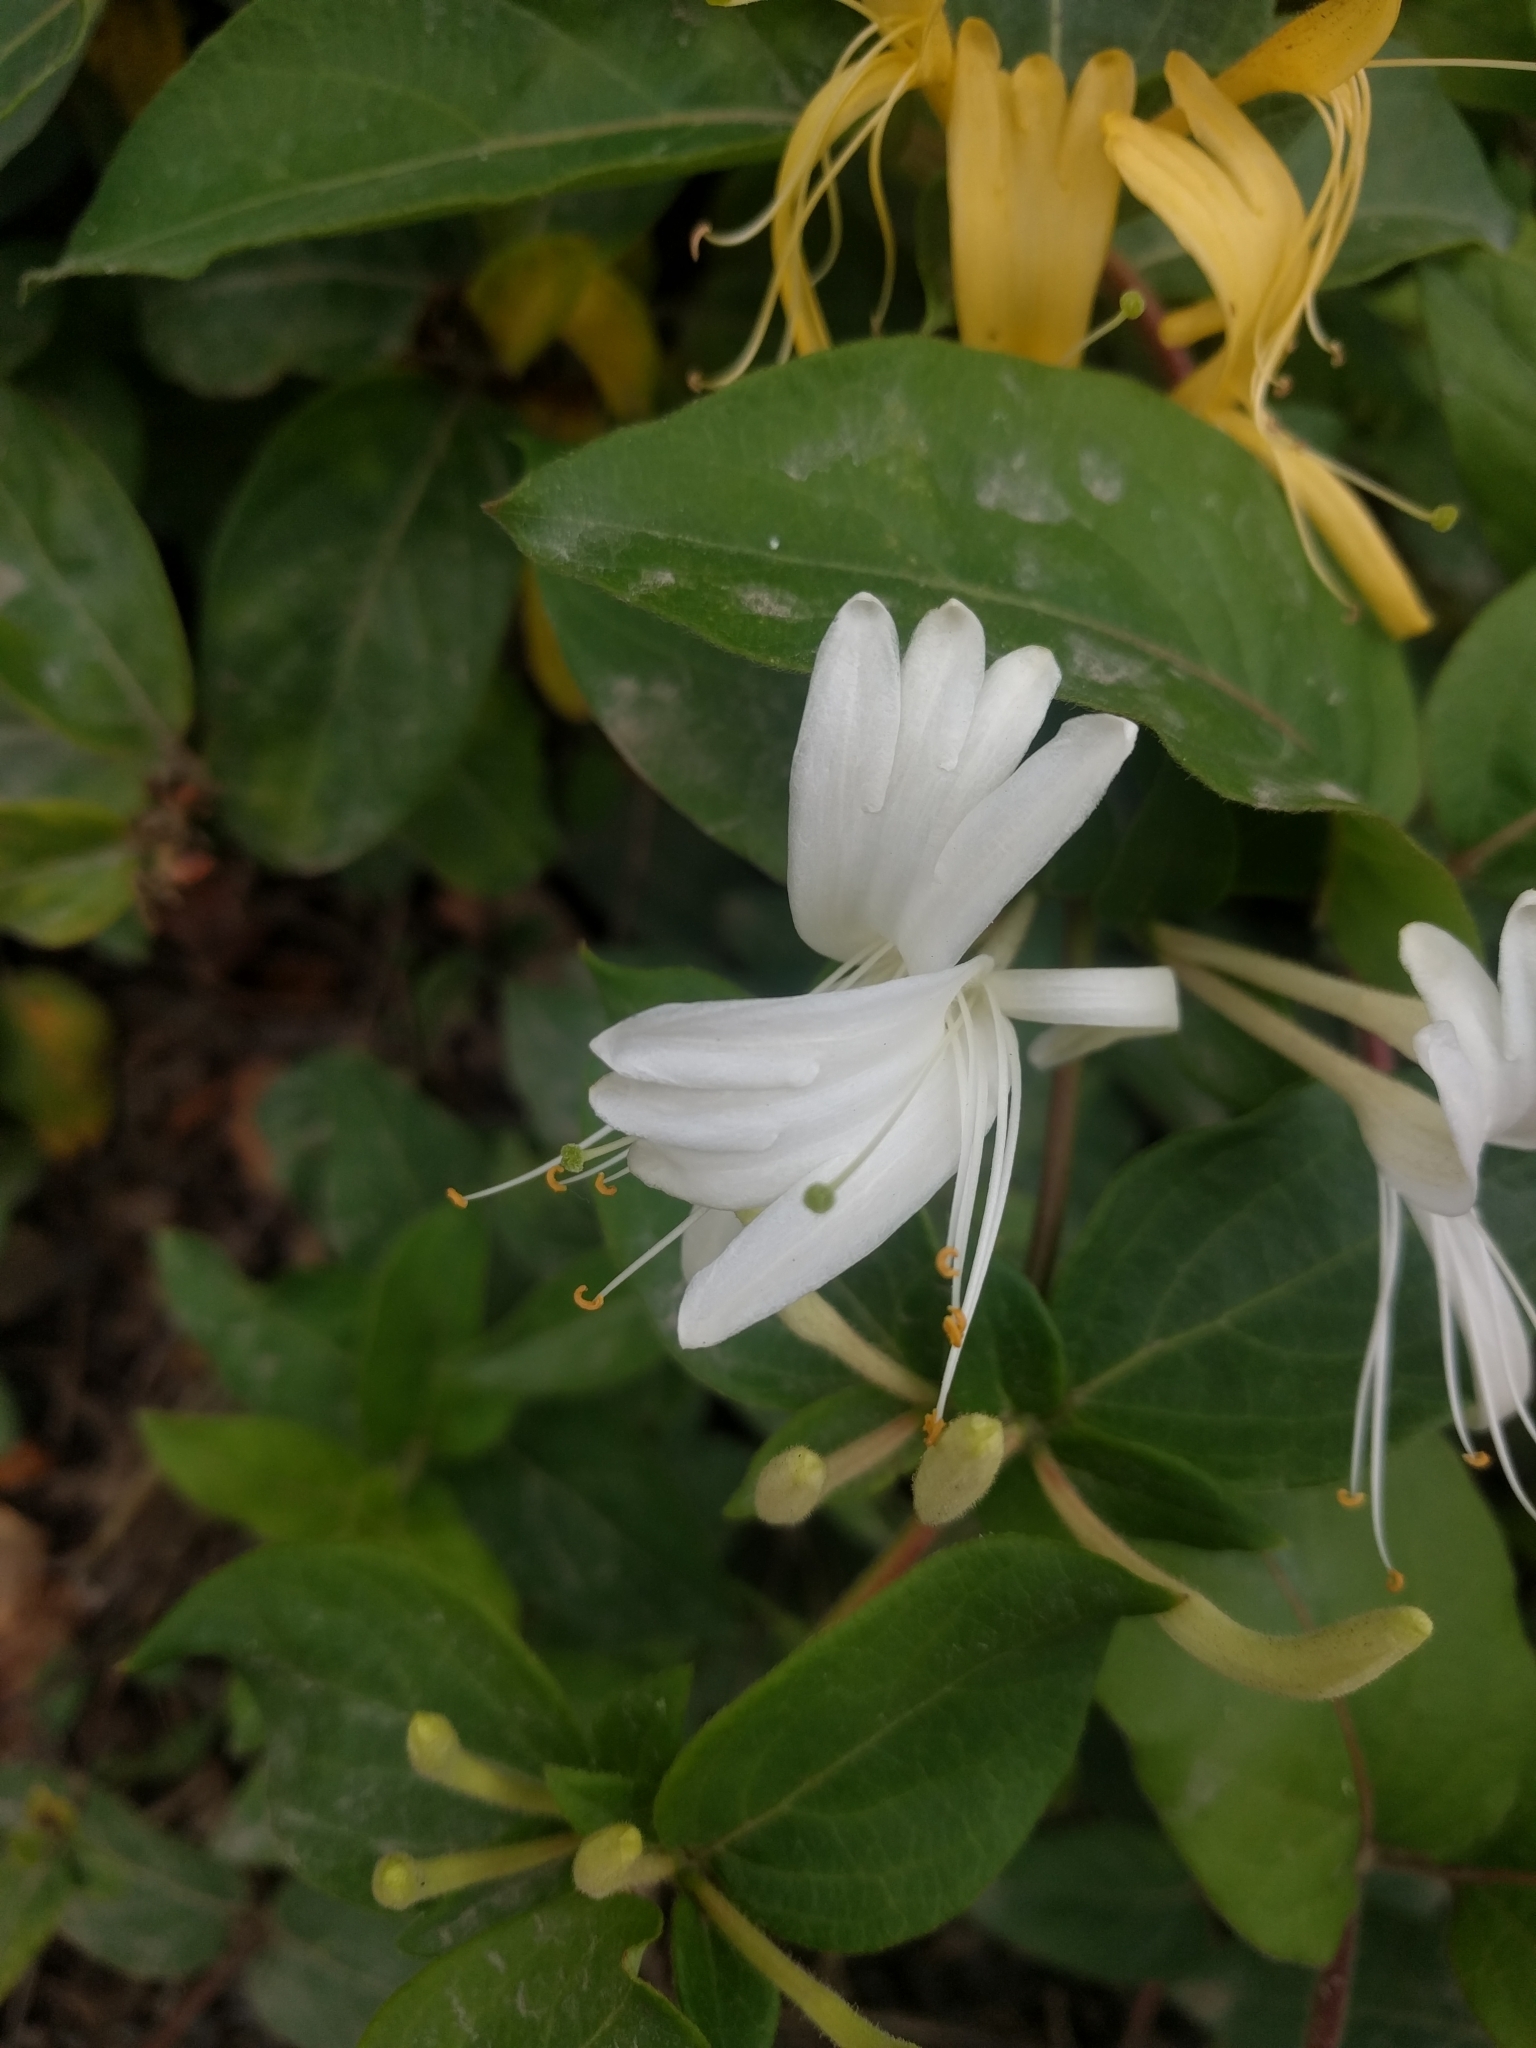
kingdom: Plantae
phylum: Tracheophyta
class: Magnoliopsida
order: Dipsacales
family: Caprifoliaceae
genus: Lonicera
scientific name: Lonicera japonica
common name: Japanese honeysuckle
